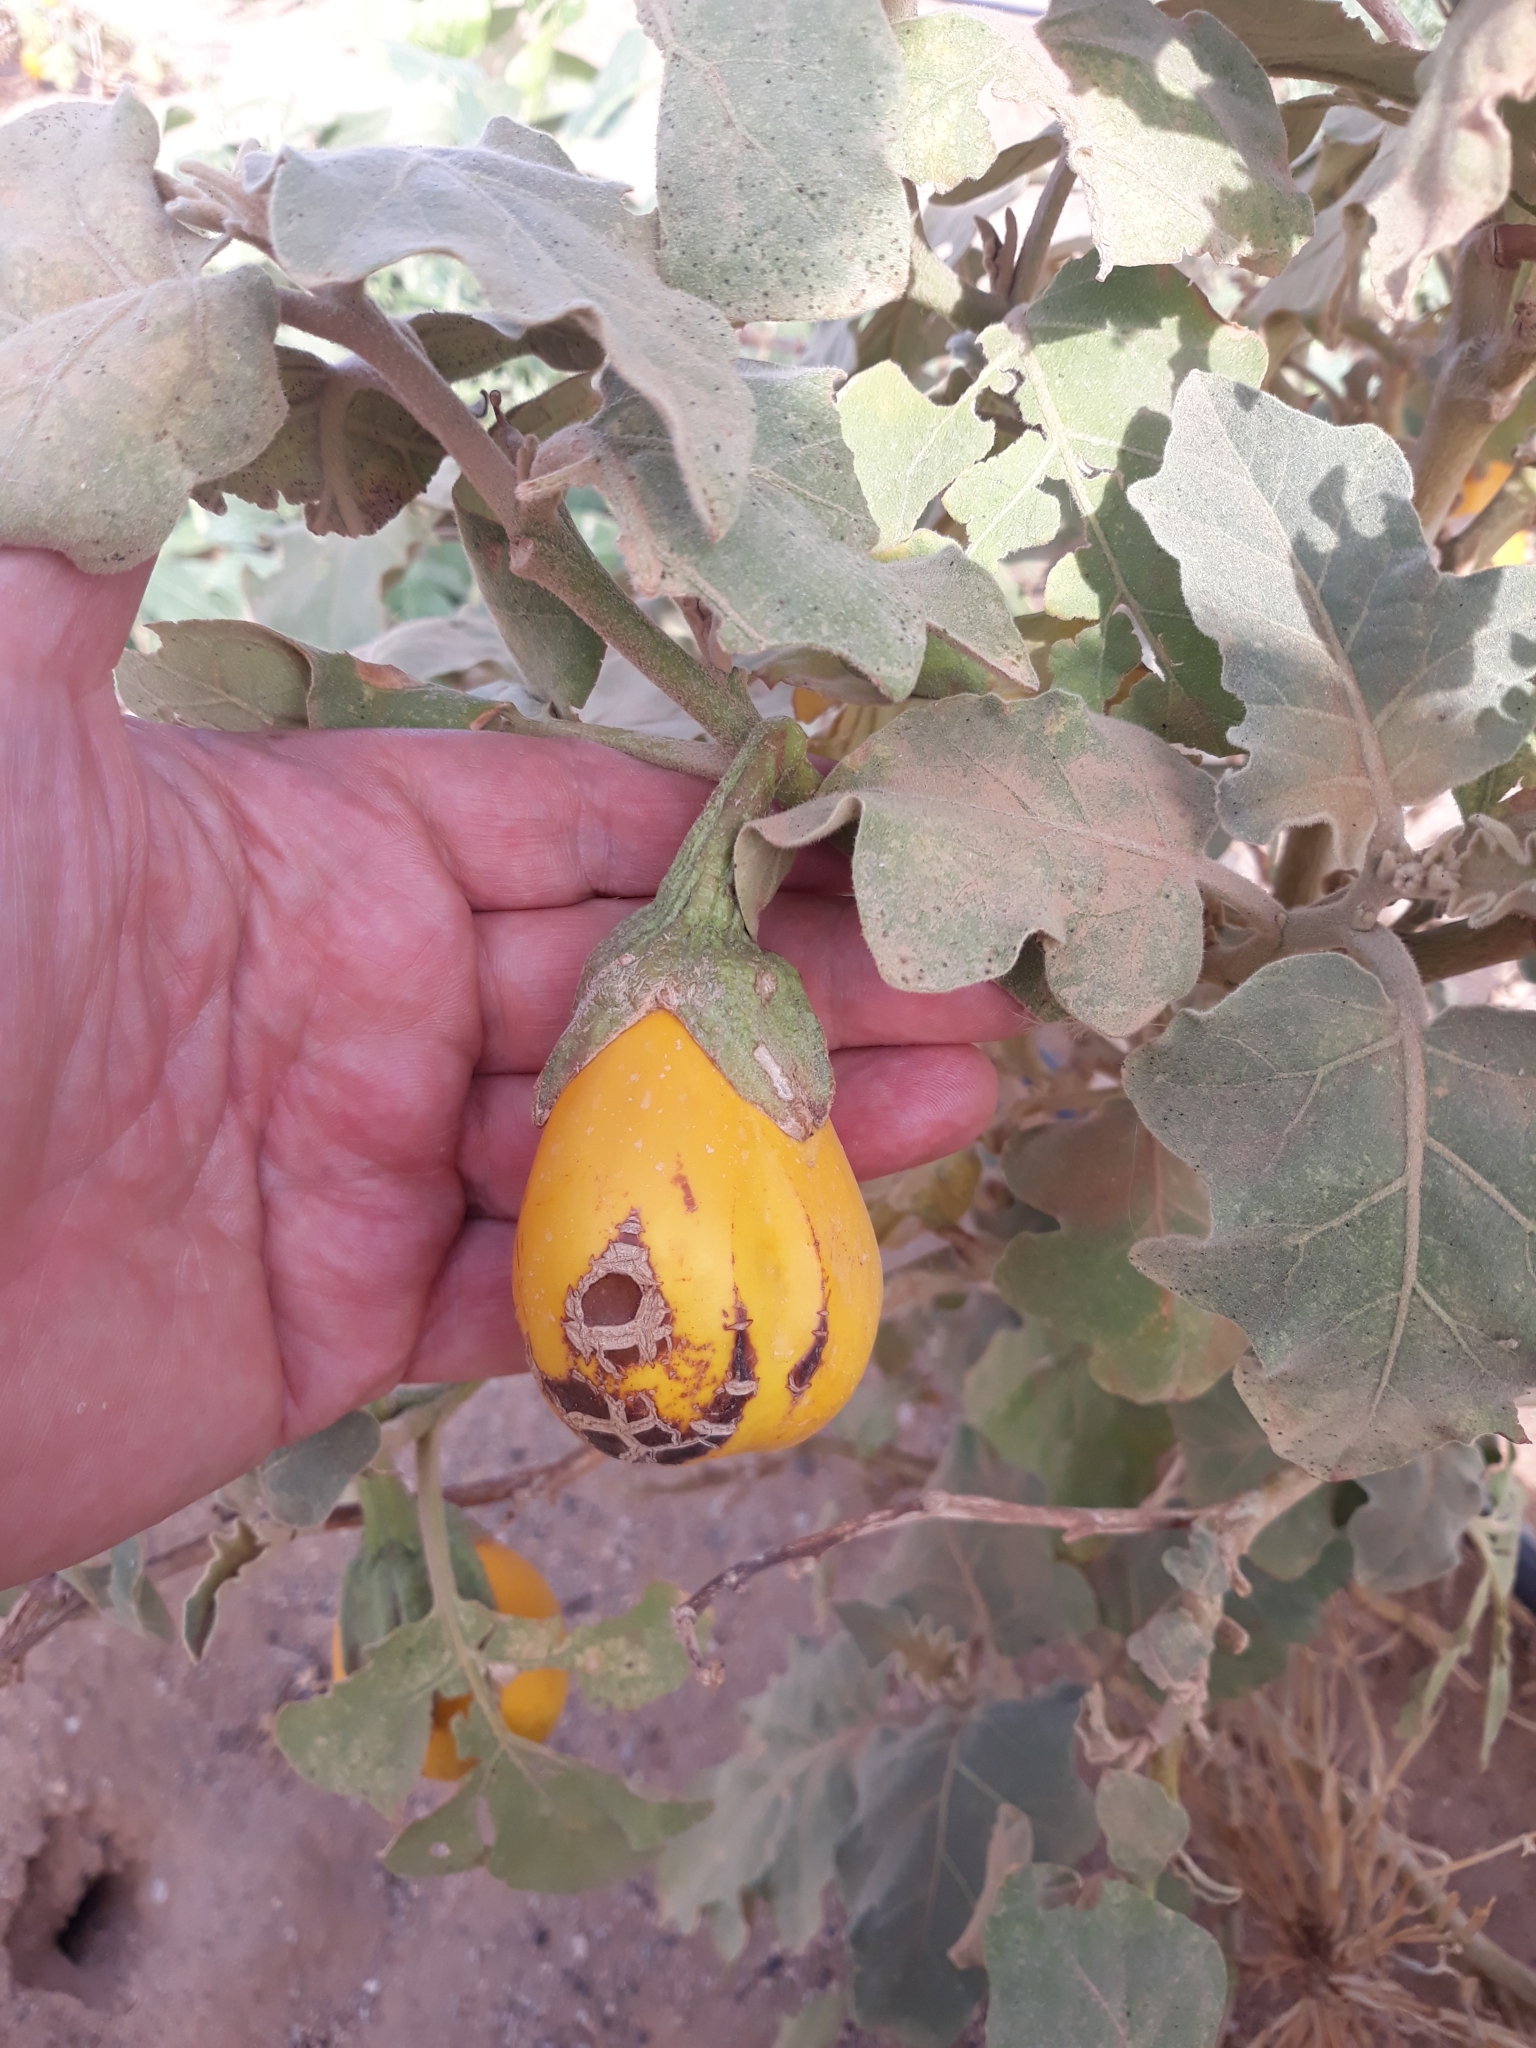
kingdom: Plantae
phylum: Tracheophyta
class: Magnoliopsida
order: Solanales
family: Solanaceae
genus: Solanum
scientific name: Solanum melongena
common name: Eggplant
